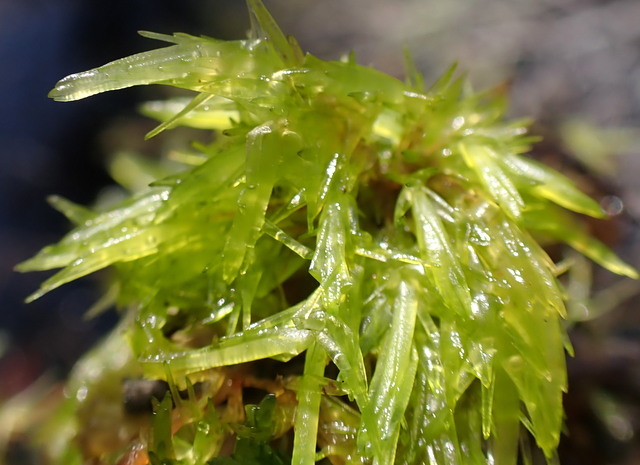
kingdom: Plantae
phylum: Bryophyta
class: Sphagnopsida
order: Sphagnales
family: Sphagnaceae
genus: Sphagnum
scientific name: Sphagnum perichaetiale
